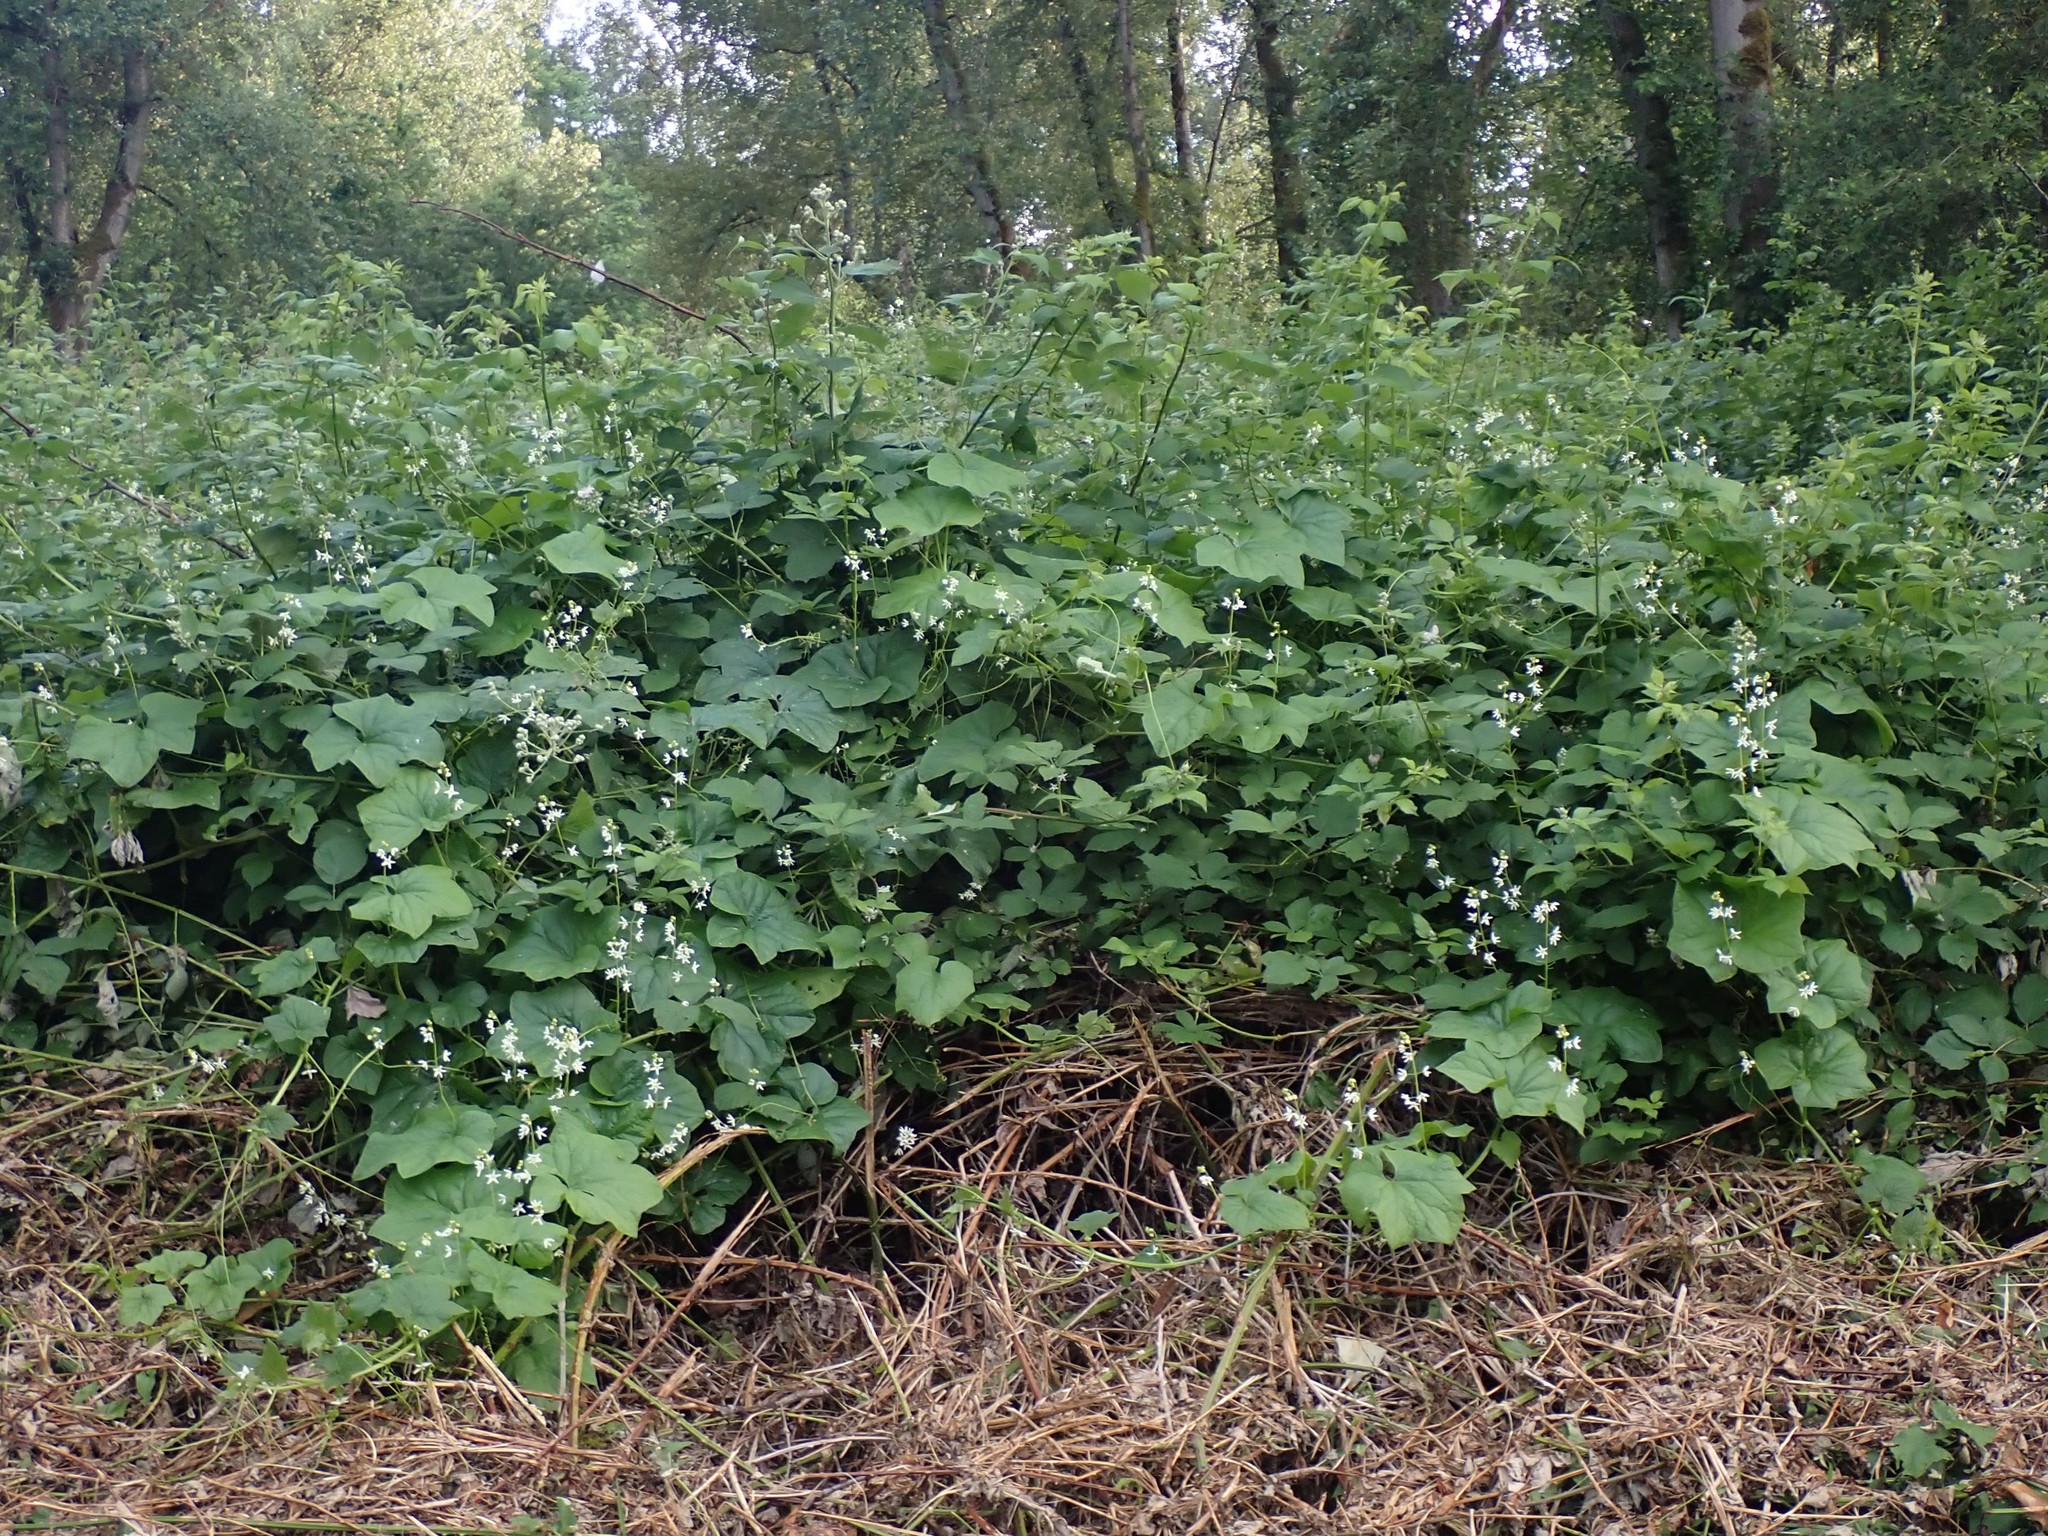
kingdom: Plantae
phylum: Tracheophyta
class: Magnoliopsida
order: Cucurbitales
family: Cucurbitaceae
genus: Marah
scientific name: Marah oregana
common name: Coastal manroot
